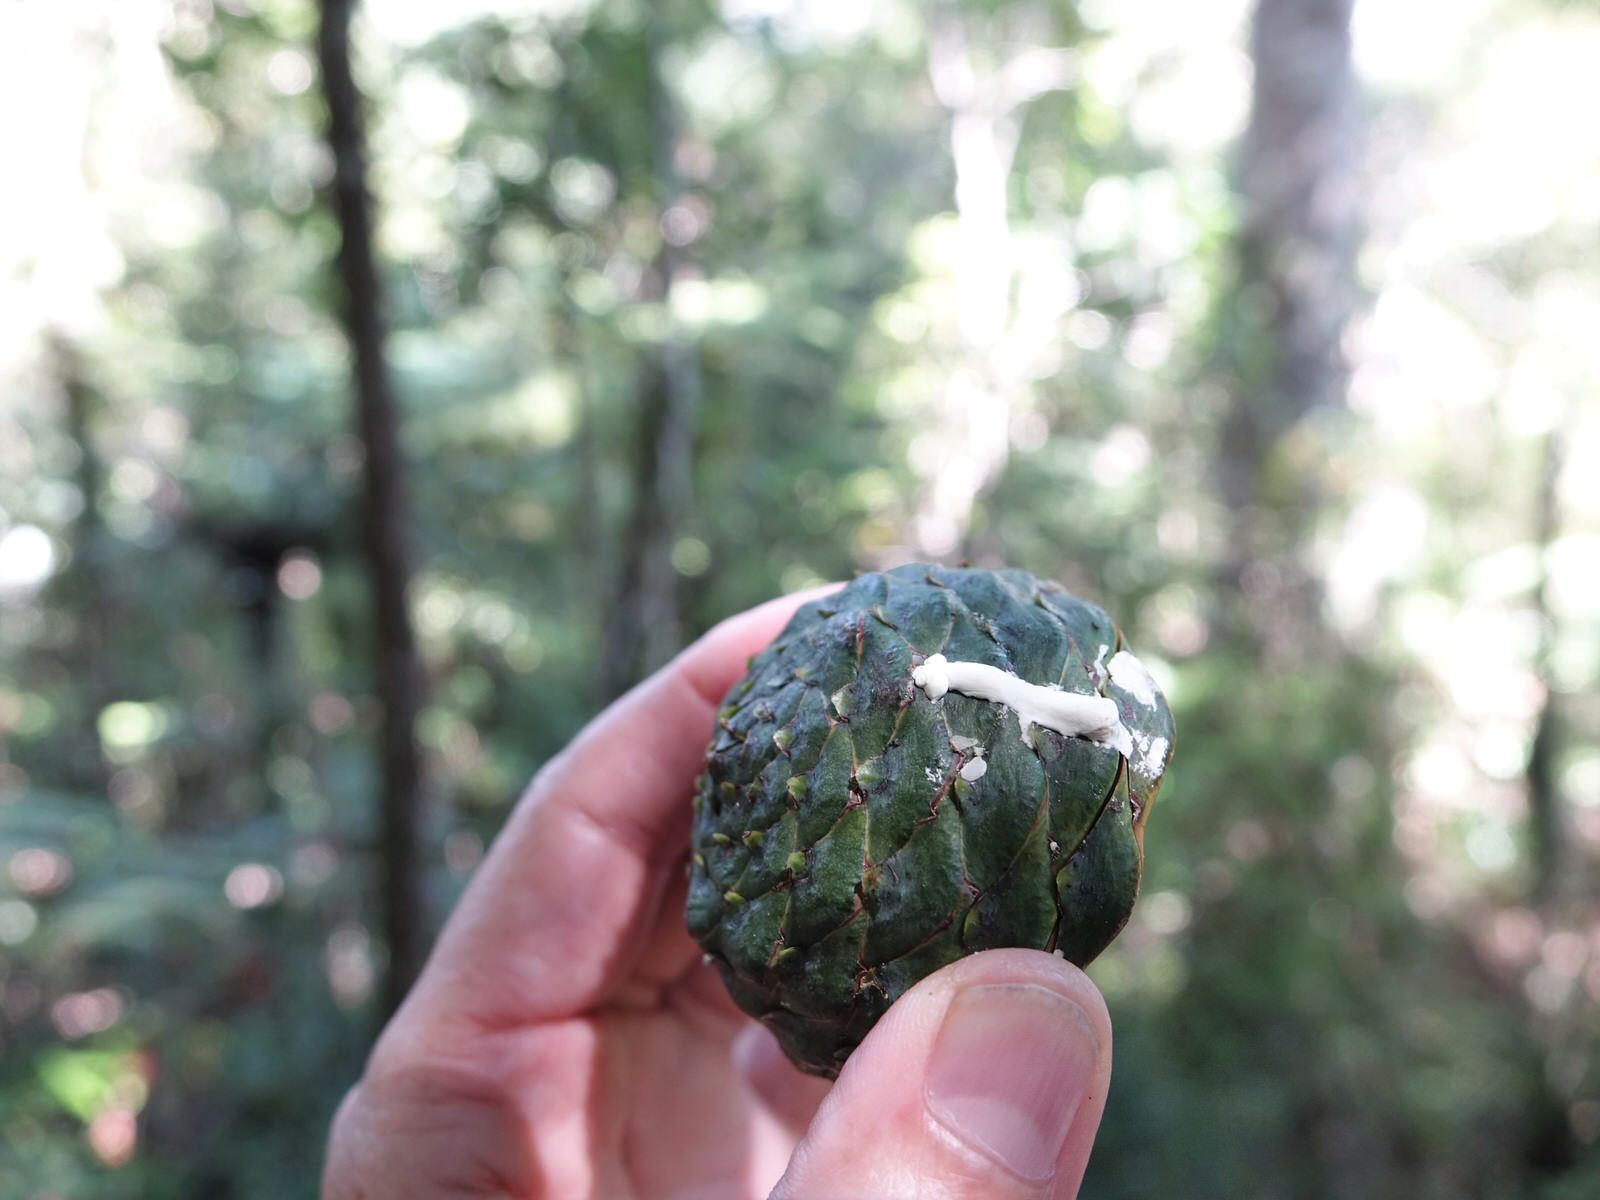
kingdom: Plantae
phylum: Tracheophyta
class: Pinopsida
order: Pinales
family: Araucariaceae
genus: Agathis
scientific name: Agathis australis
